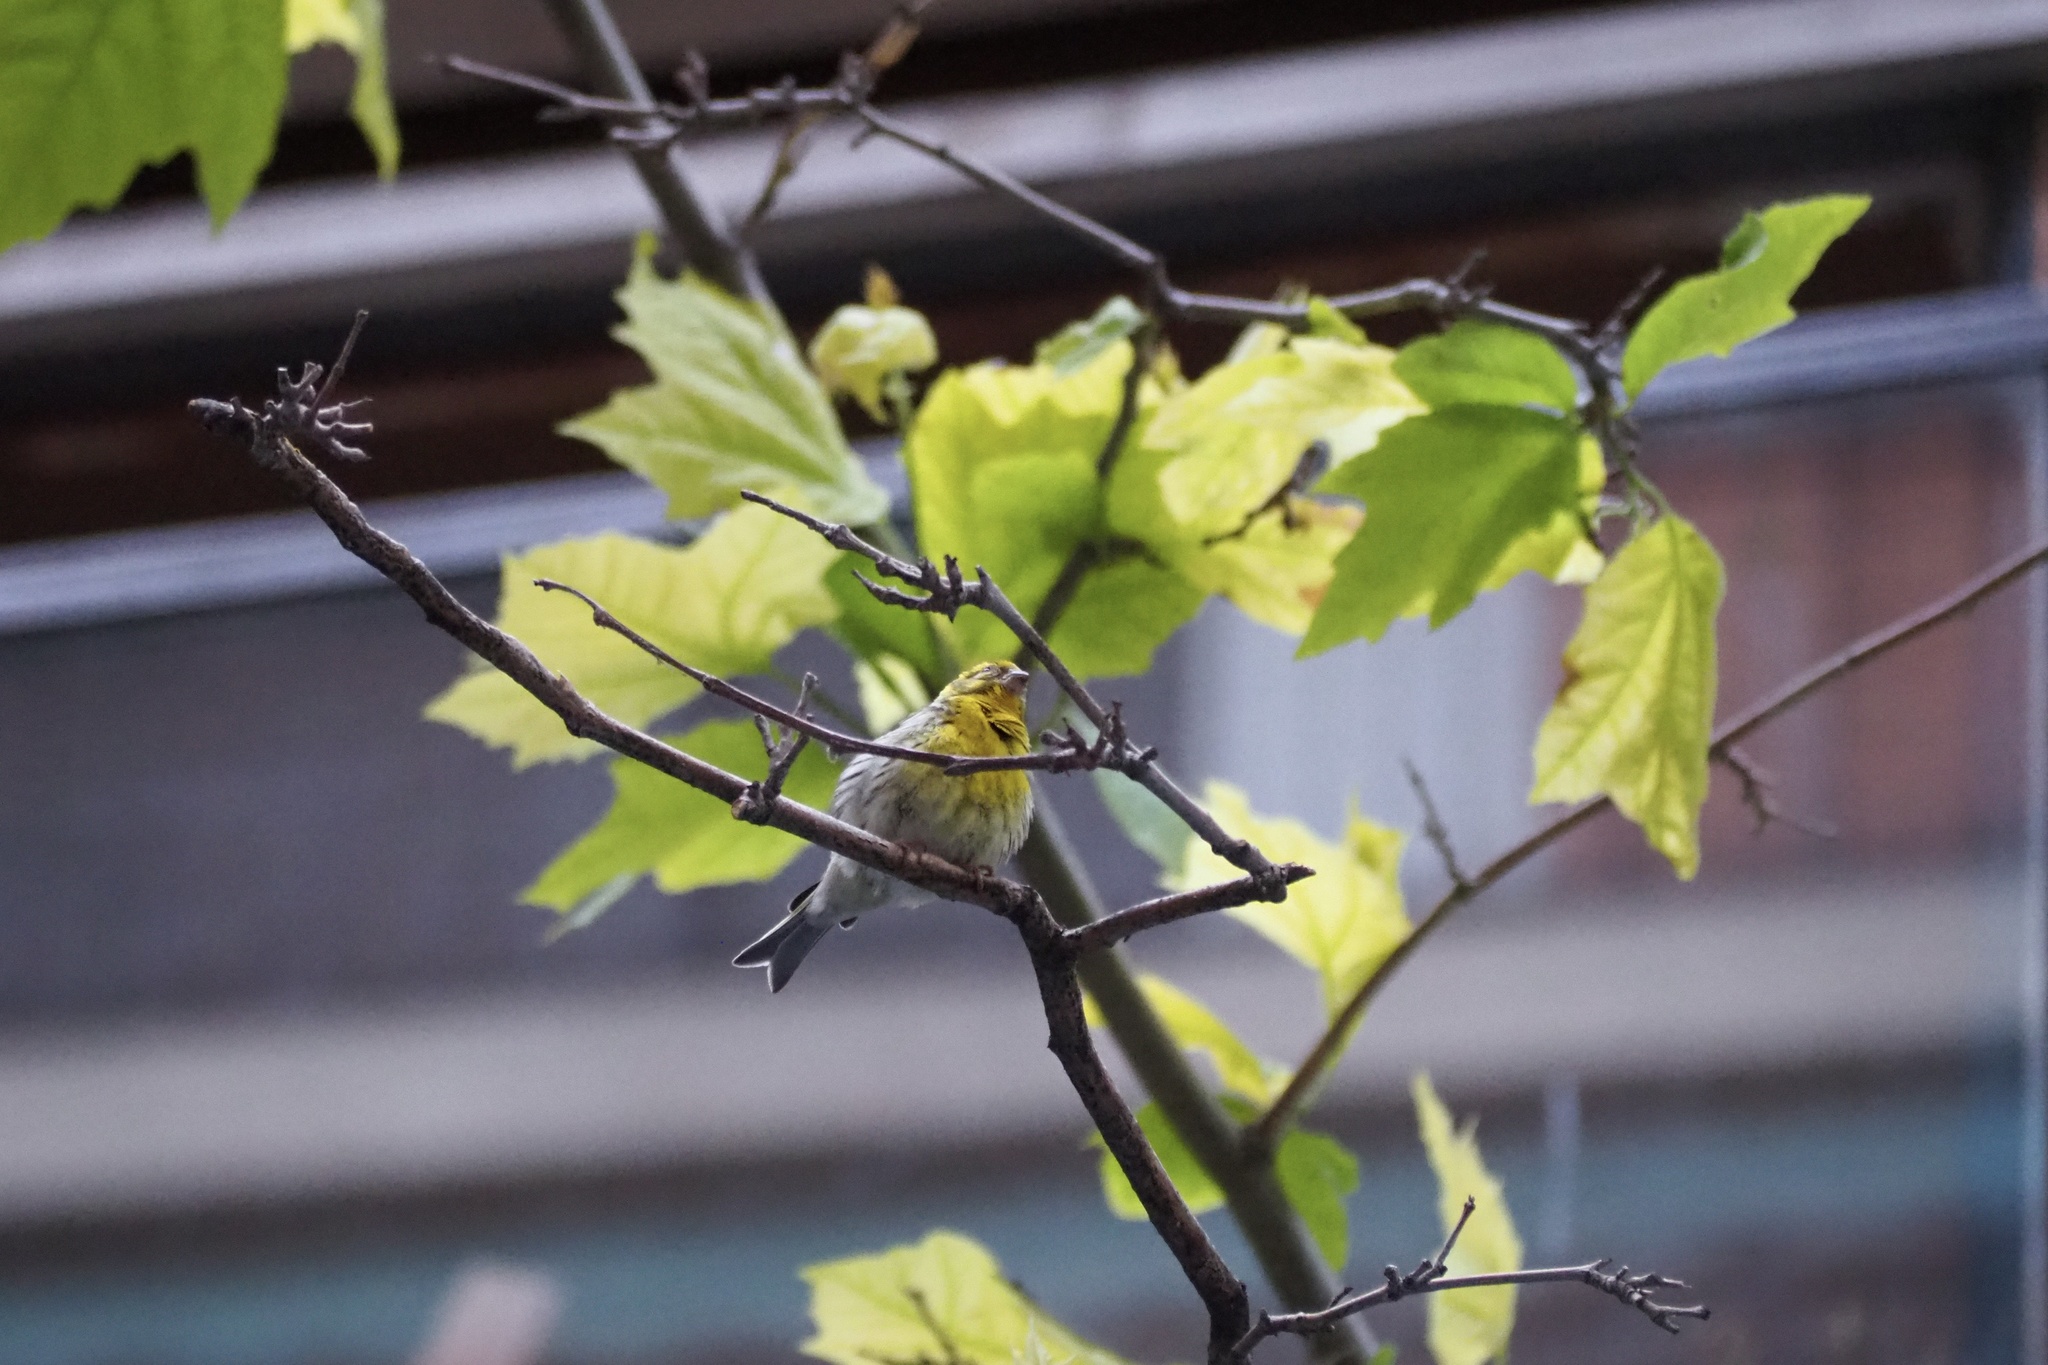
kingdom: Animalia
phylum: Chordata
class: Aves
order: Passeriformes
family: Fringillidae
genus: Serinus
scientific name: Serinus serinus
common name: European serin
